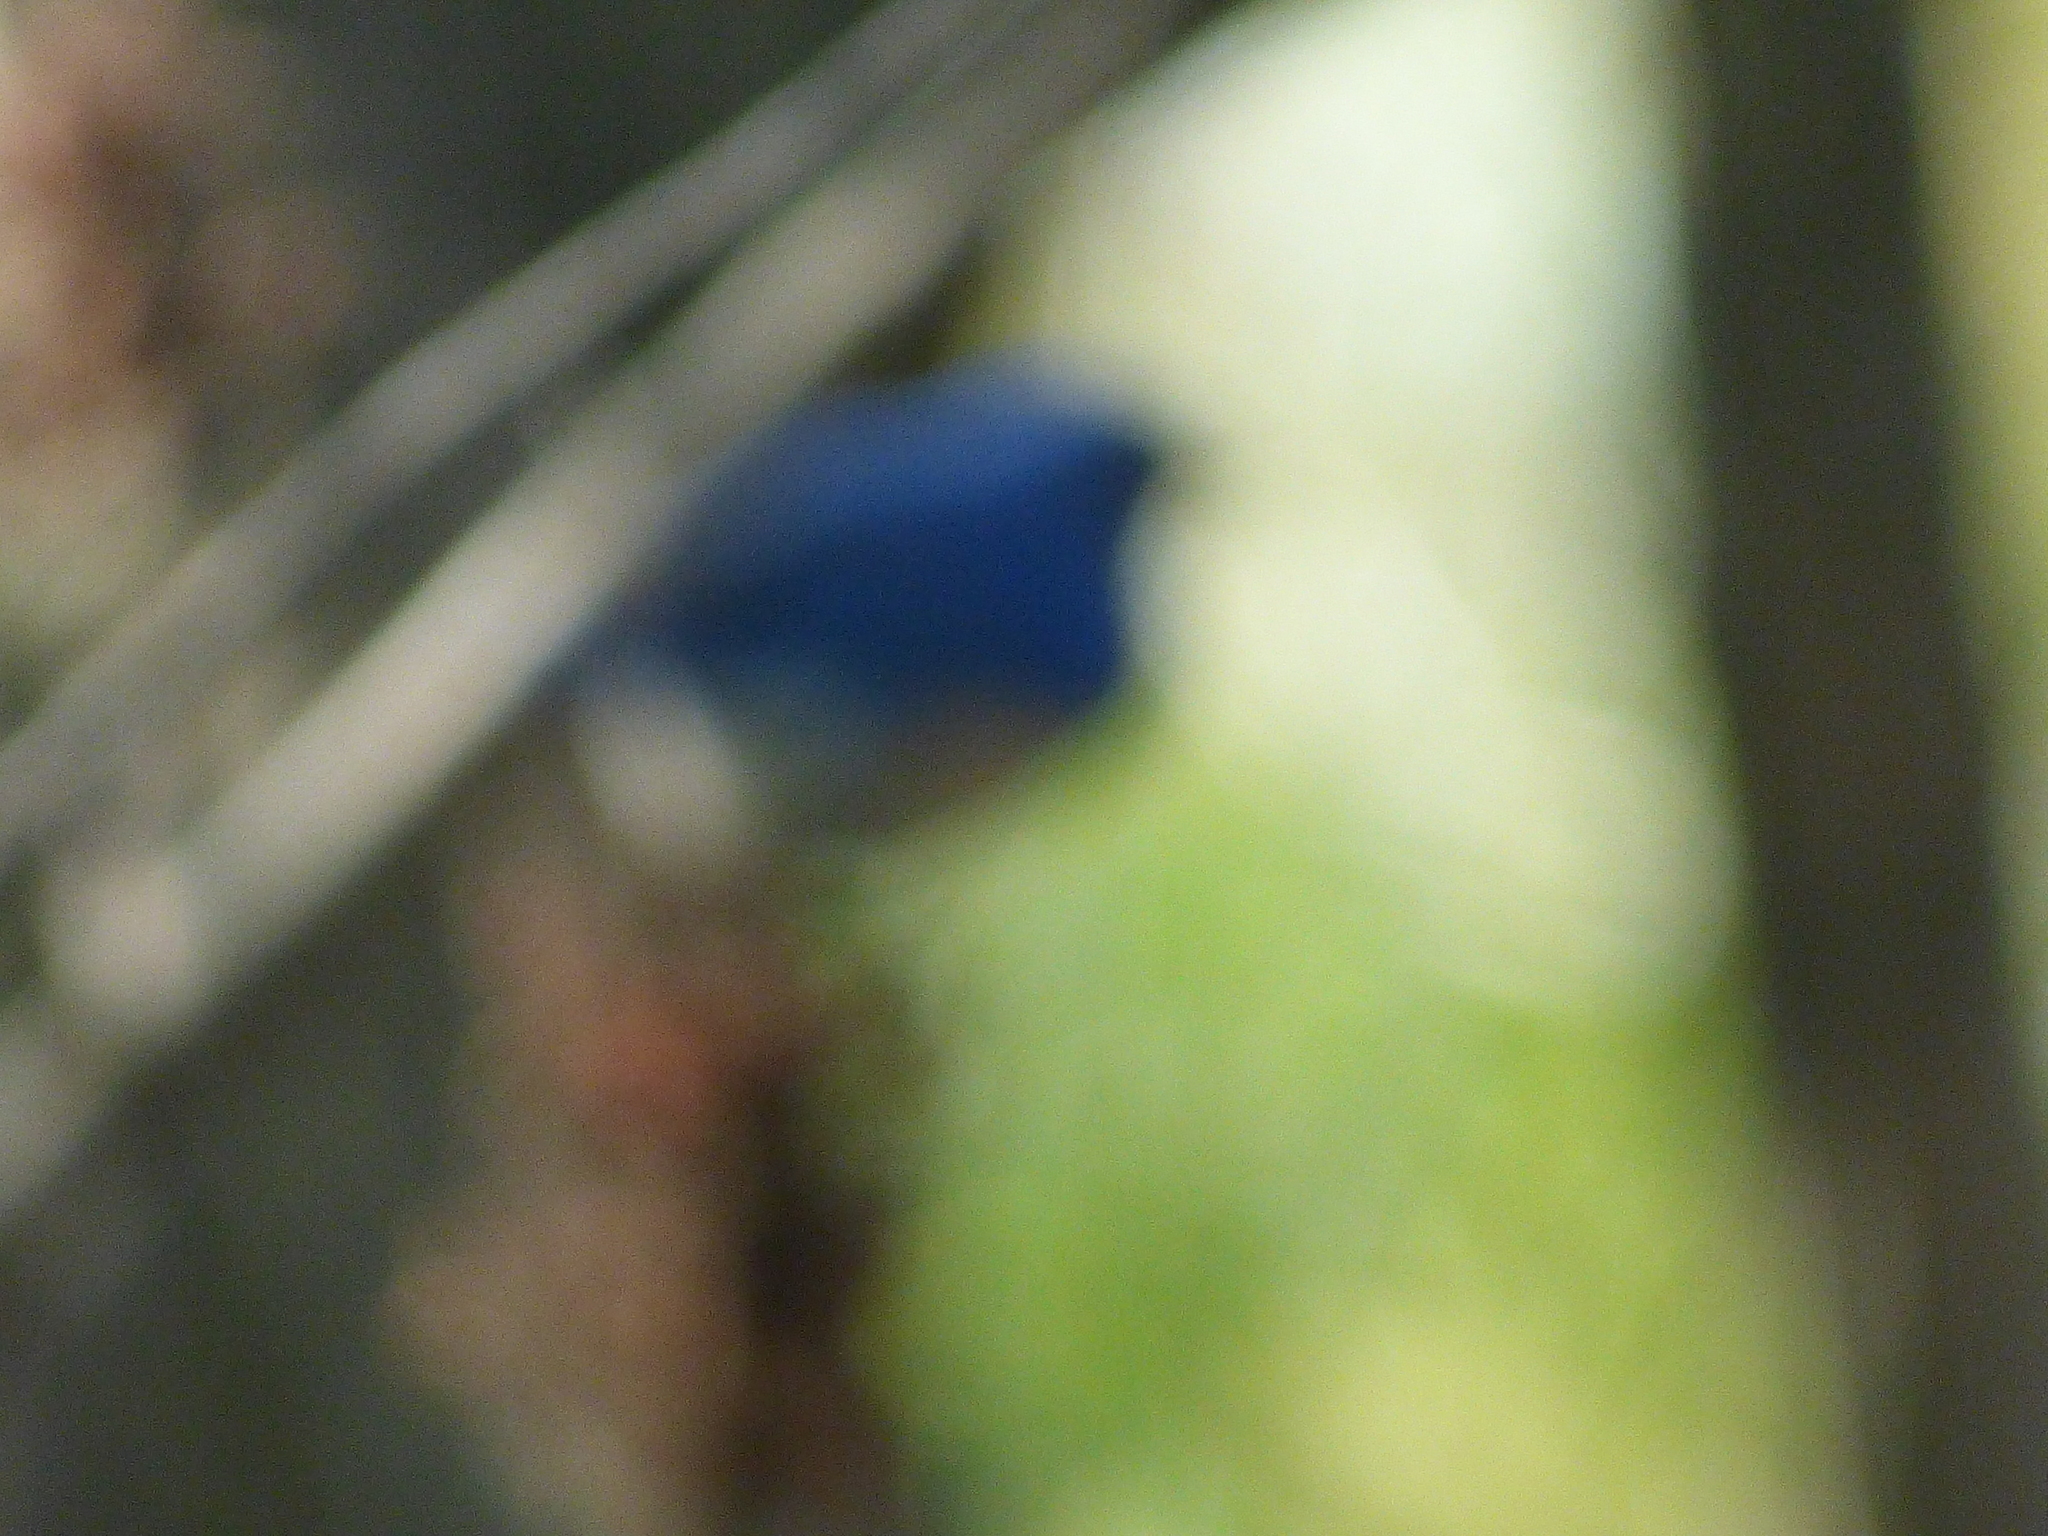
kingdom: Animalia
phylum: Chordata
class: Aves
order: Passeriformes
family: Turdidae
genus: Sialia
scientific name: Sialia sialis
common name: Eastern bluebird
